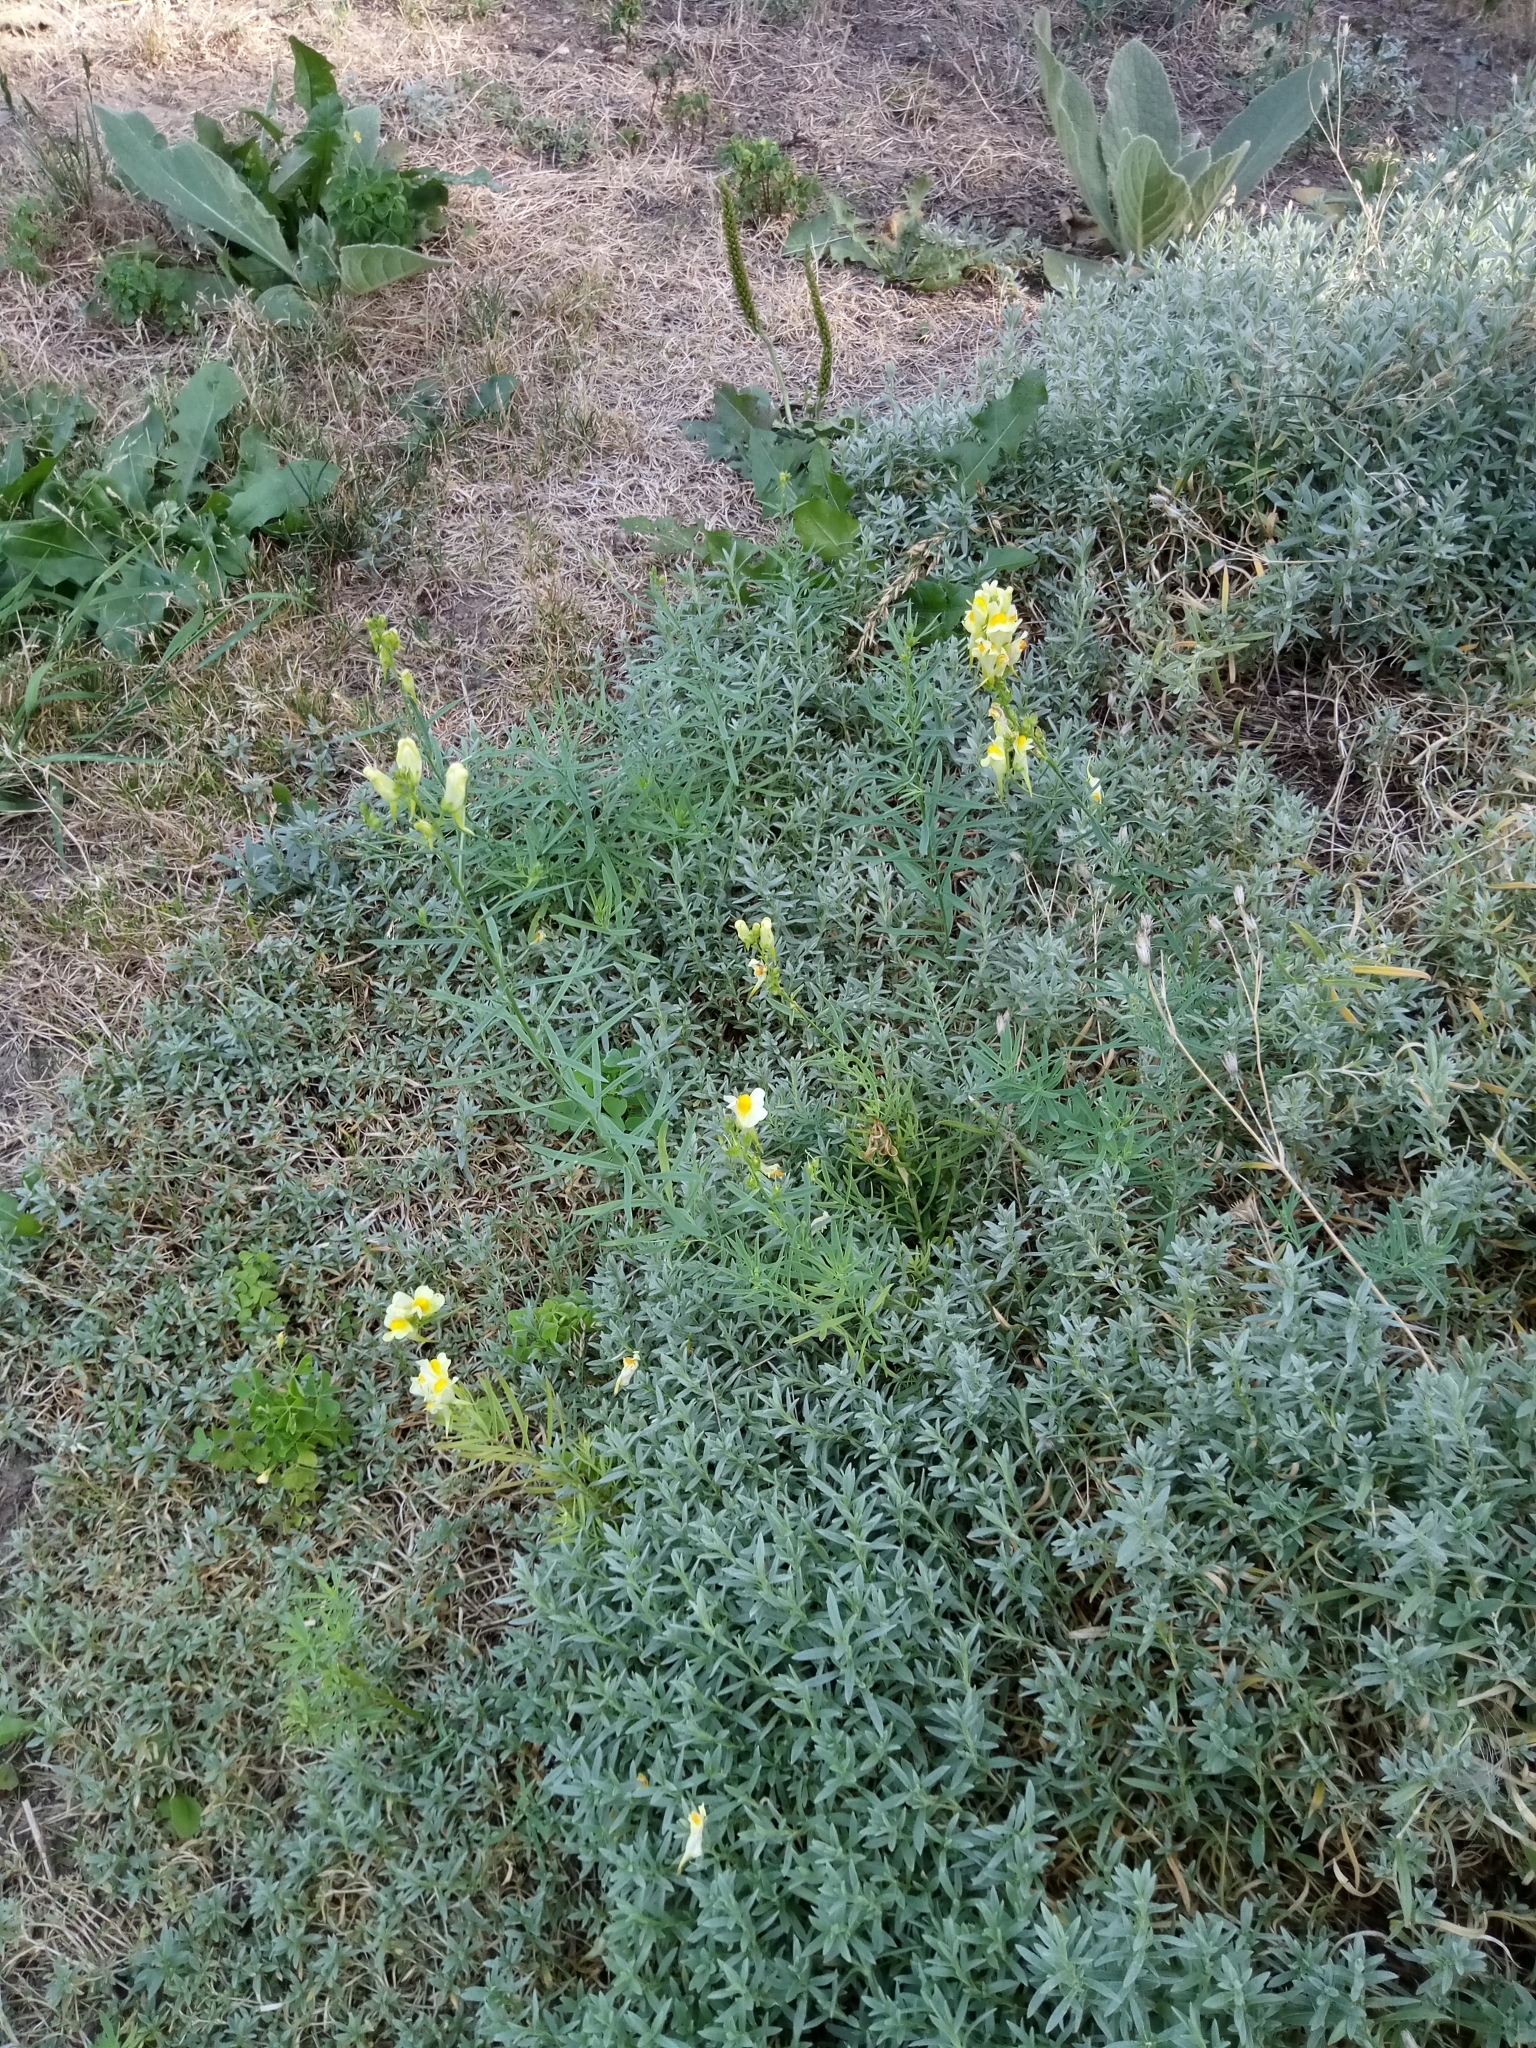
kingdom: Plantae
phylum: Tracheophyta
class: Magnoliopsida
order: Lamiales
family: Plantaginaceae
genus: Linaria
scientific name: Linaria vulgaris
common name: Butter and eggs
